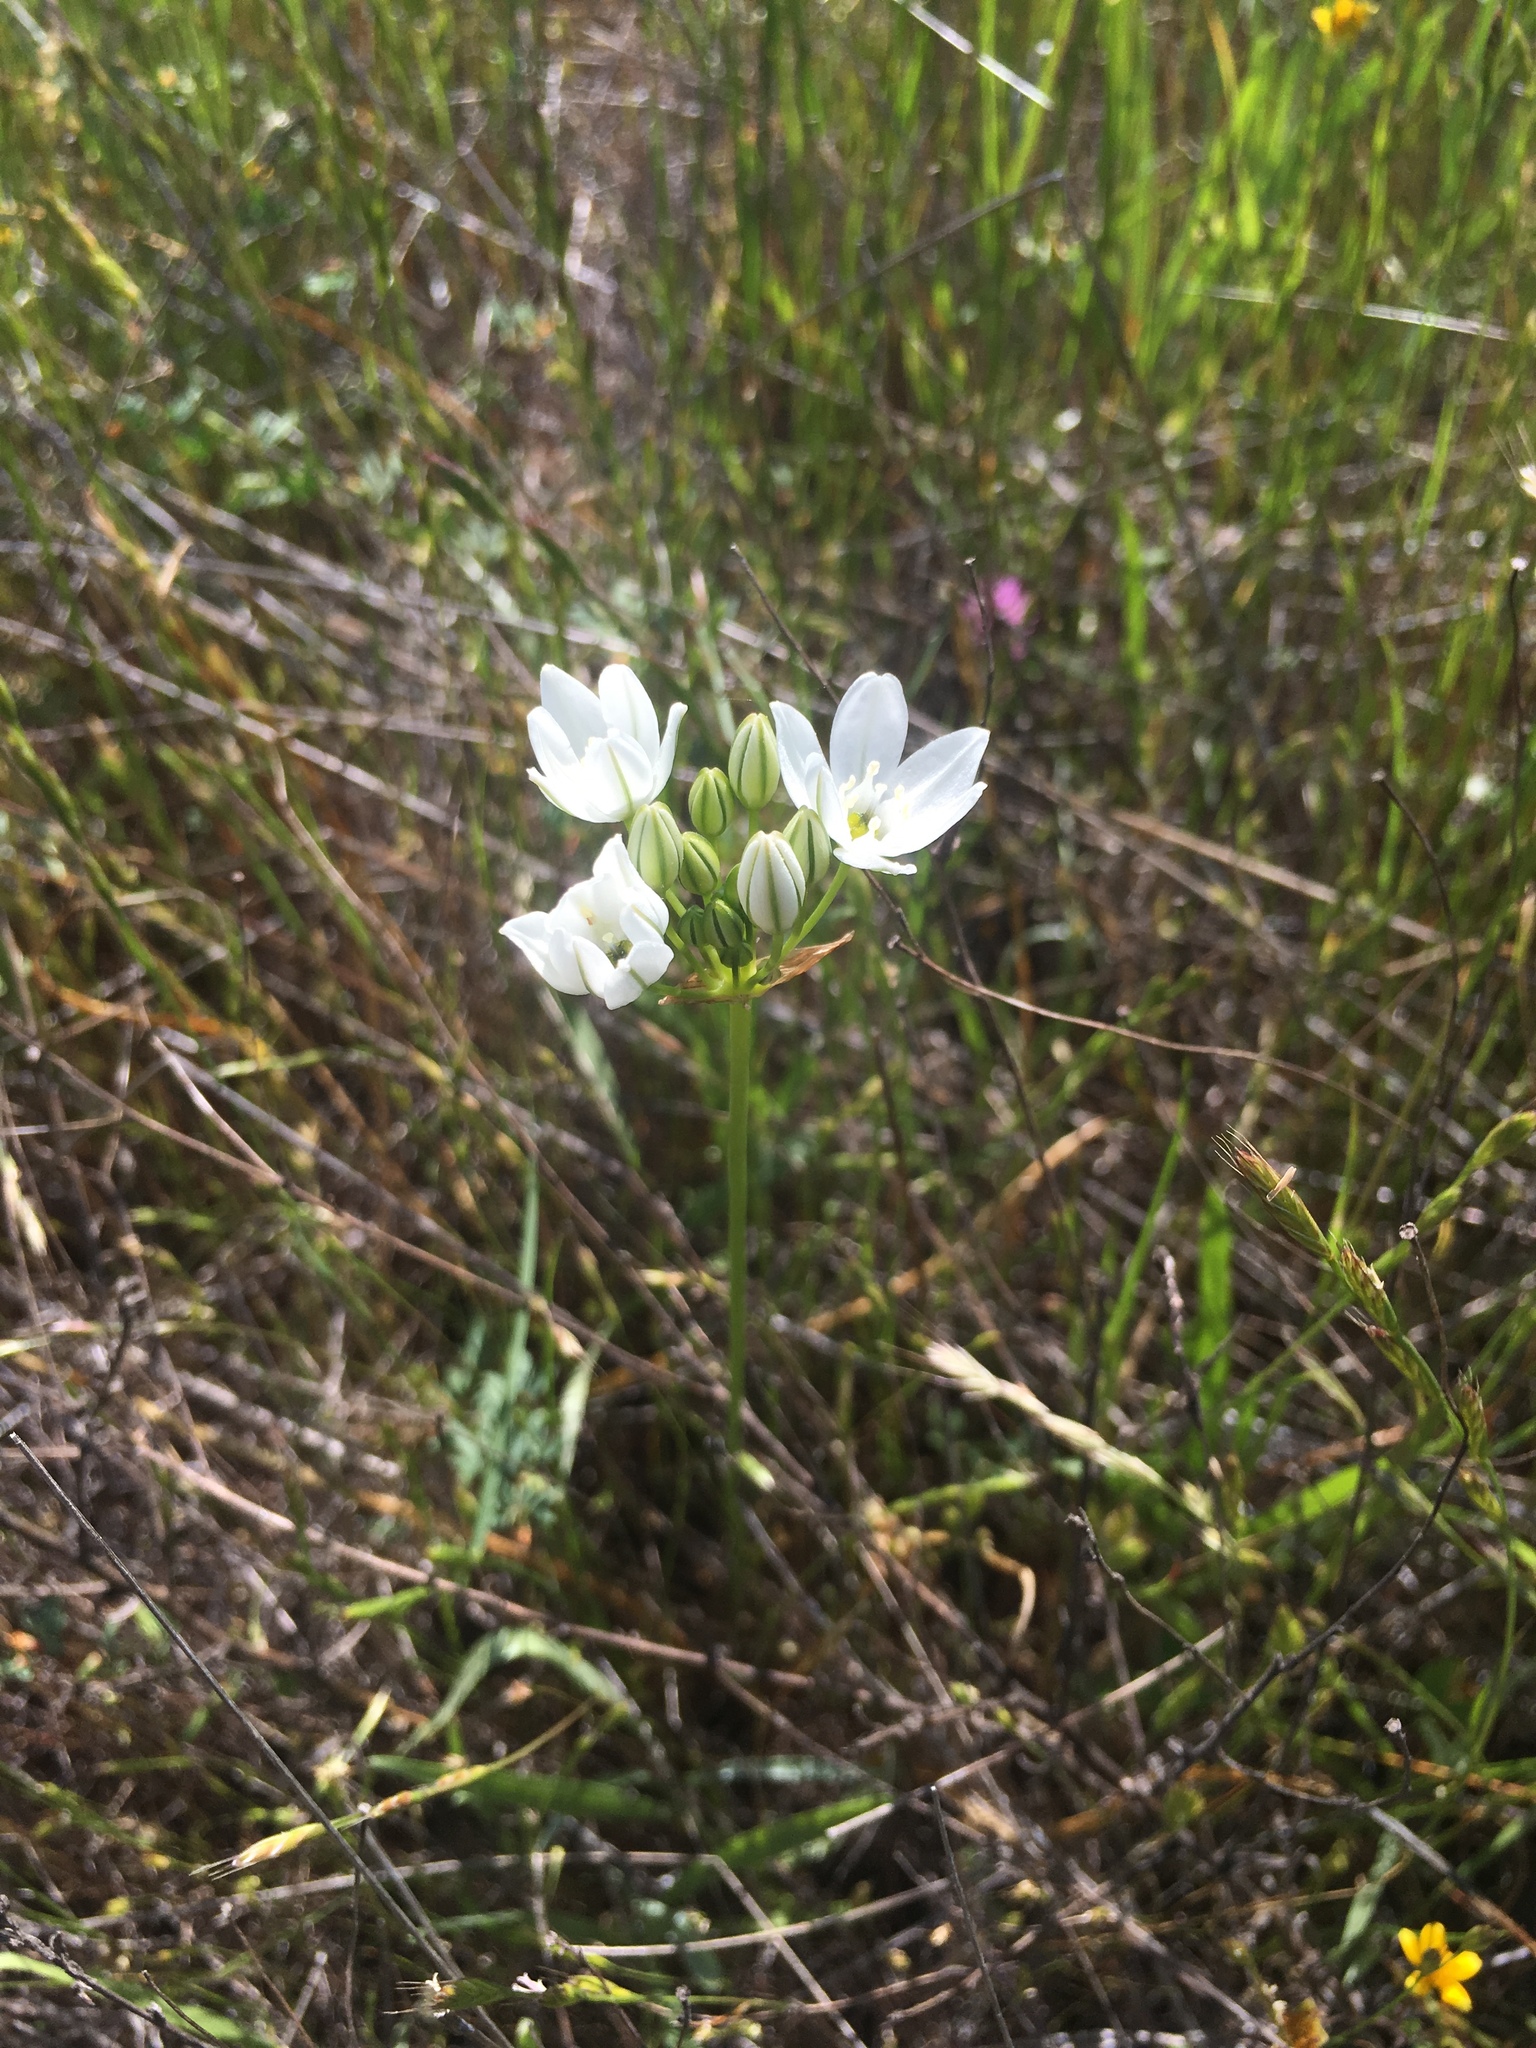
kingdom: Plantae
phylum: Tracheophyta
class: Liliopsida
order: Asparagales
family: Asparagaceae
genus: Triteleia
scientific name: Triteleia hyacinthina
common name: White brodiaea
